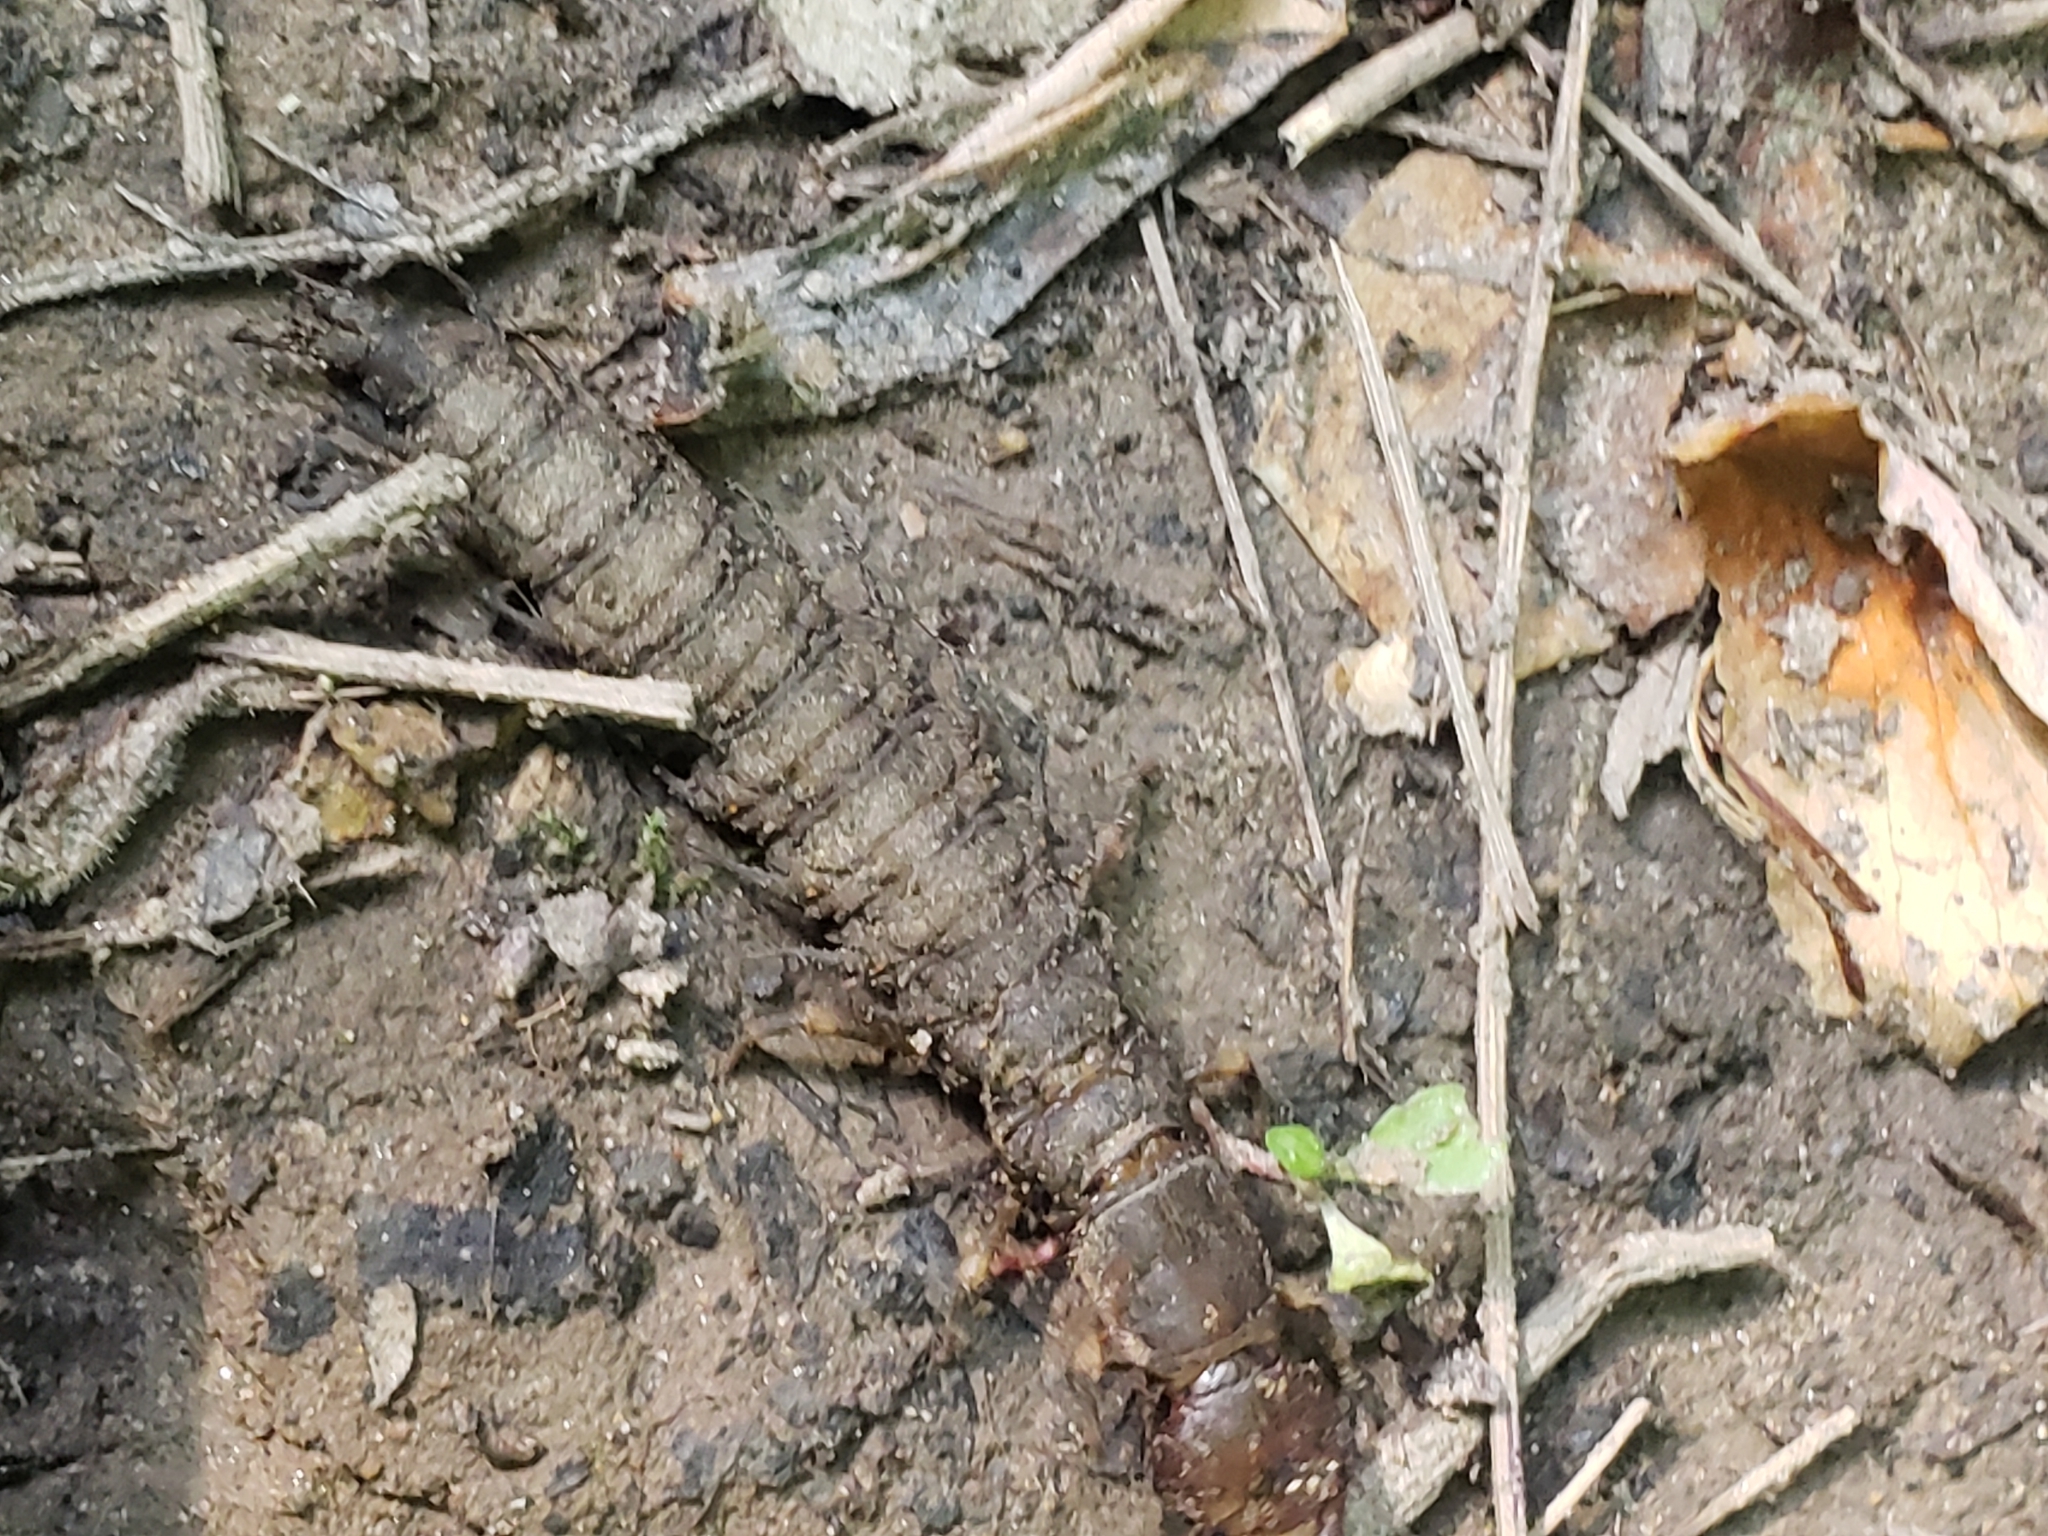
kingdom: Animalia
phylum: Arthropoda
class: Insecta
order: Megaloptera
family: Corydalidae
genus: Corydalus
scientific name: Corydalus cornutus
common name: Dobsonfly
